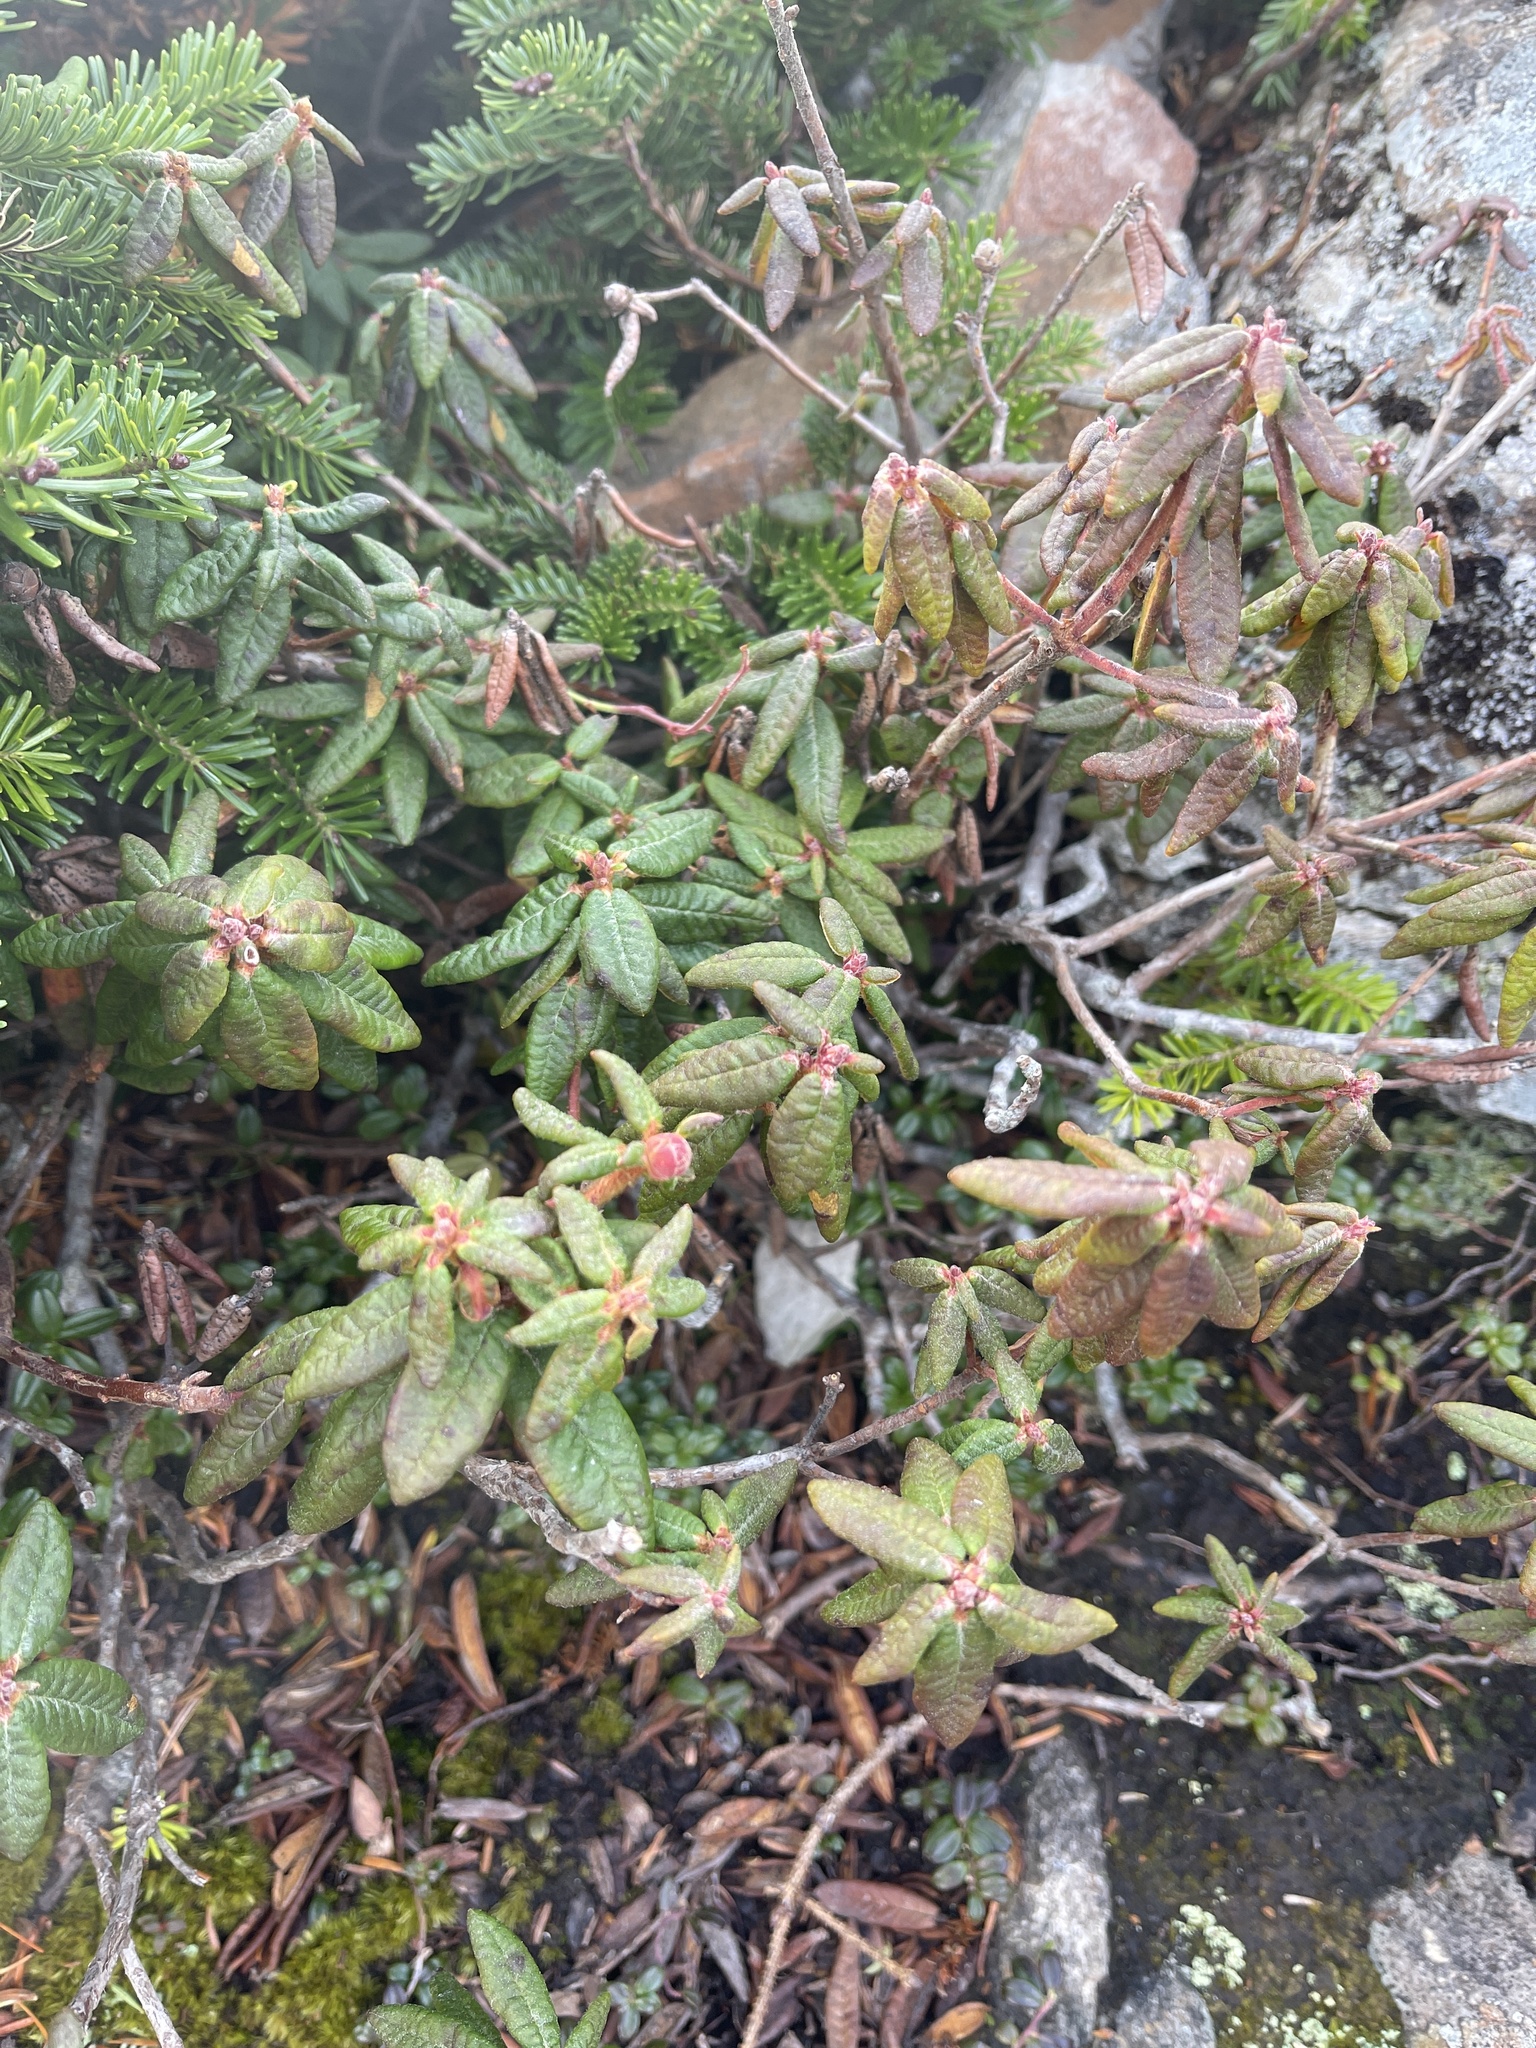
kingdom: Plantae
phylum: Tracheophyta
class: Magnoliopsida
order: Ericales
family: Ericaceae
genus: Rhododendron
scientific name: Rhododendron groenlandicum
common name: Bog labrador tea
